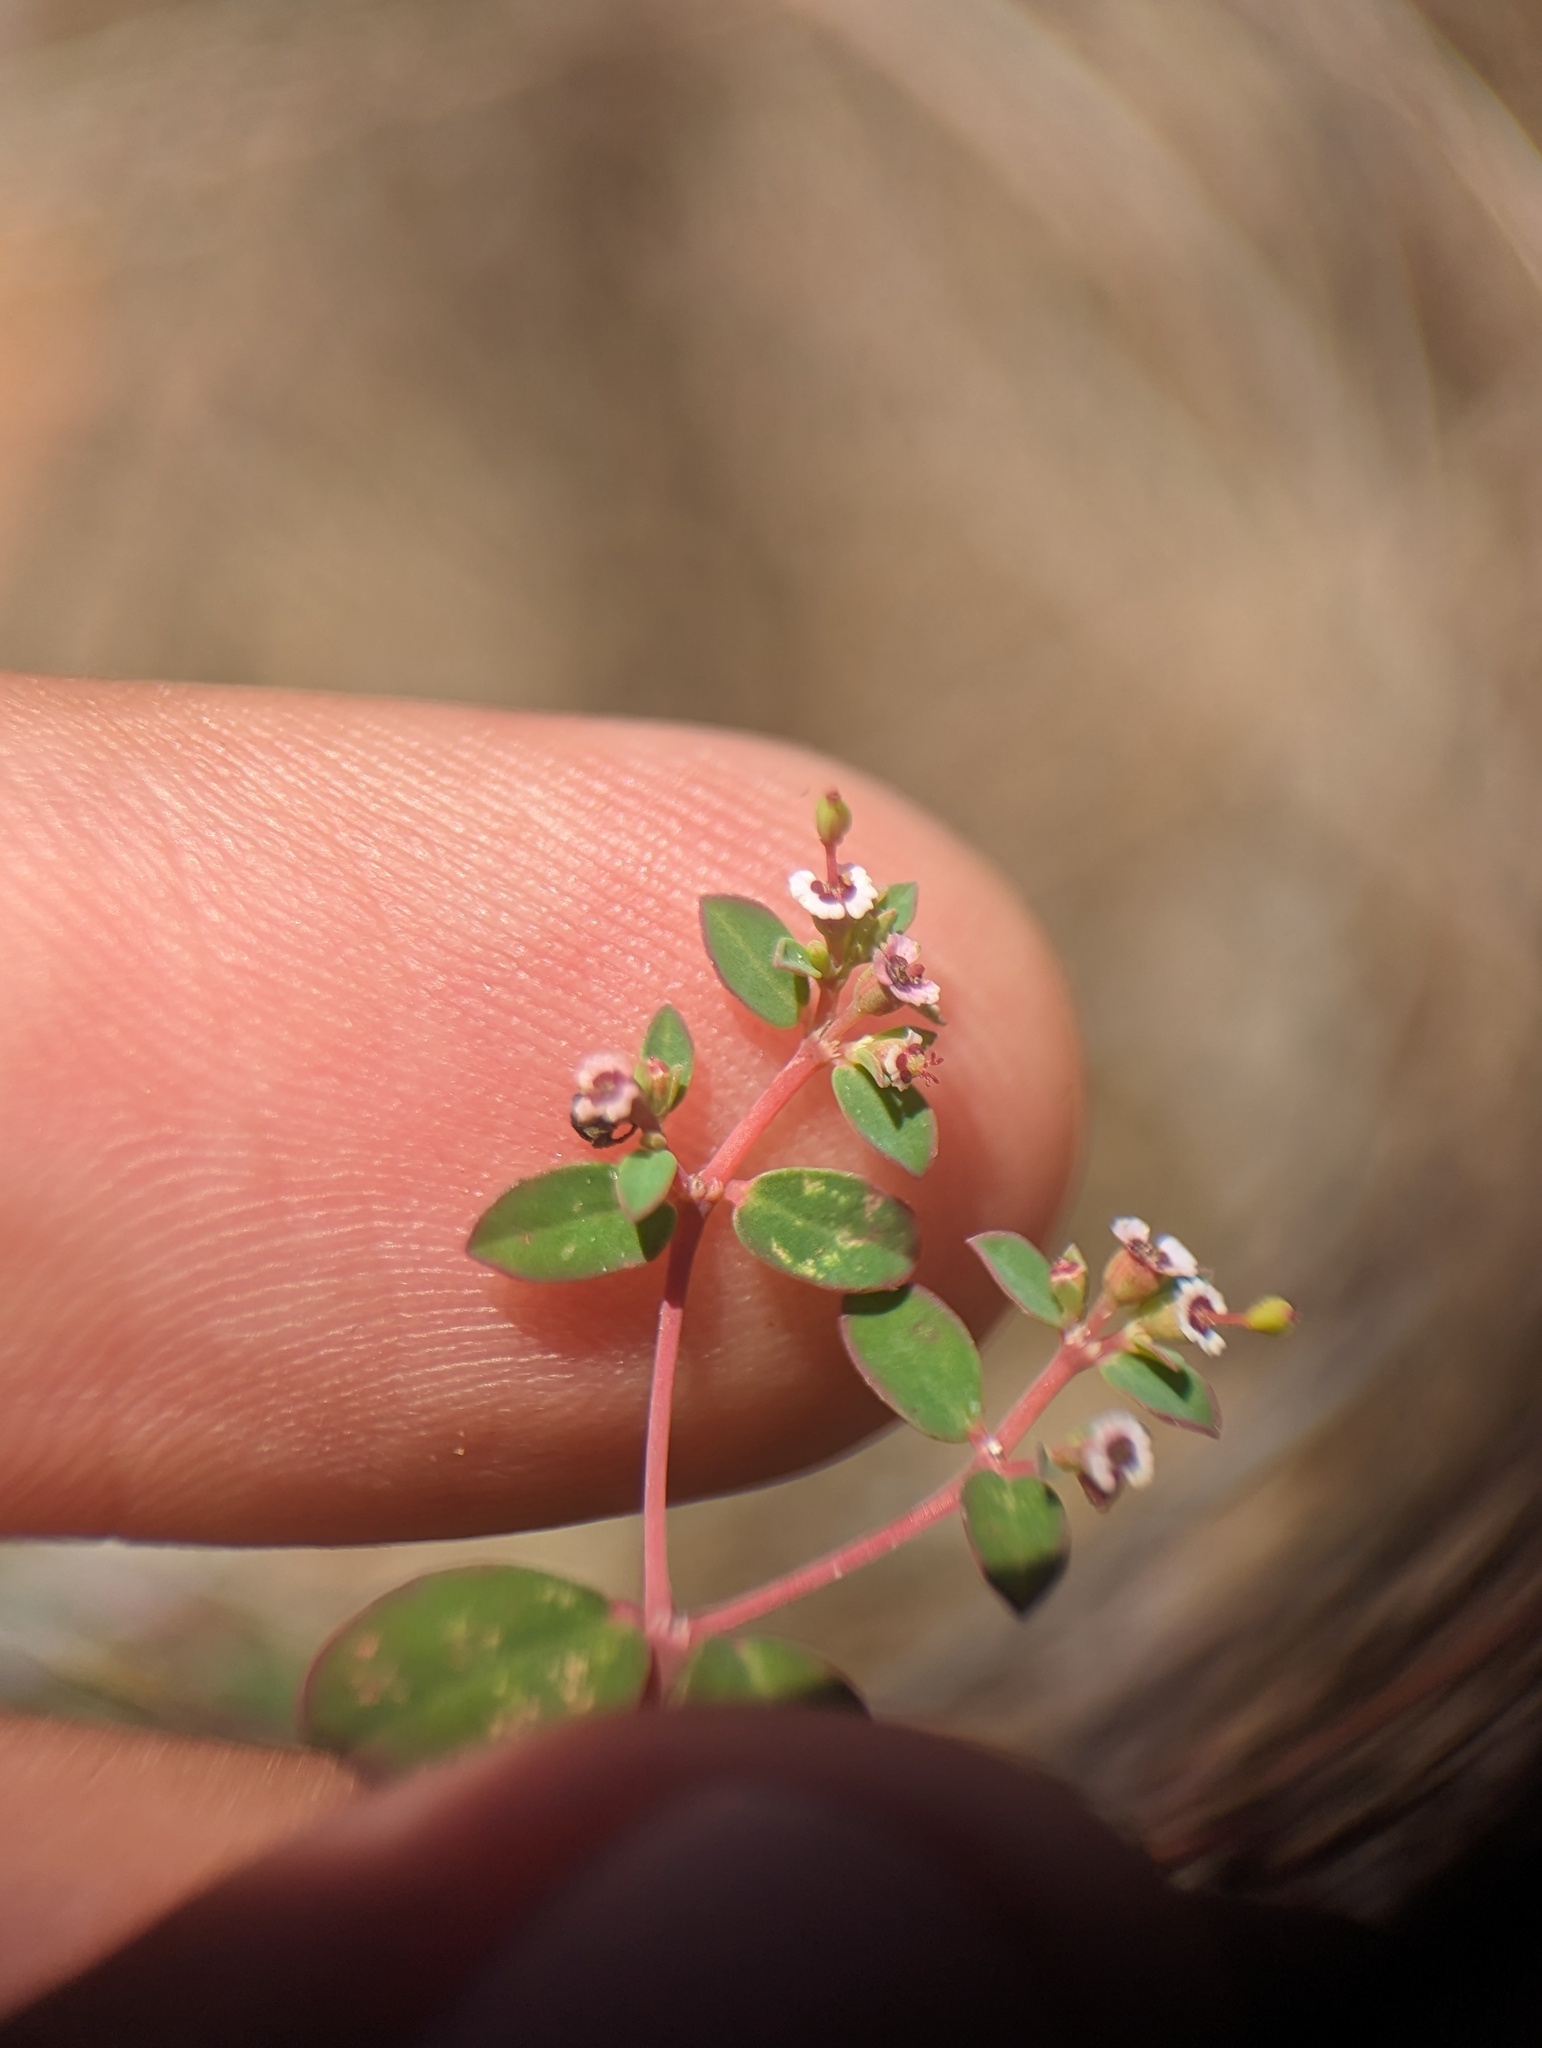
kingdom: Plantae
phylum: Tracheophyta
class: Magnoliopsida
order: Malpighiales
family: Euphorbiaceae
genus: Euphorbia
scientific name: Euphorbia polycarpa
